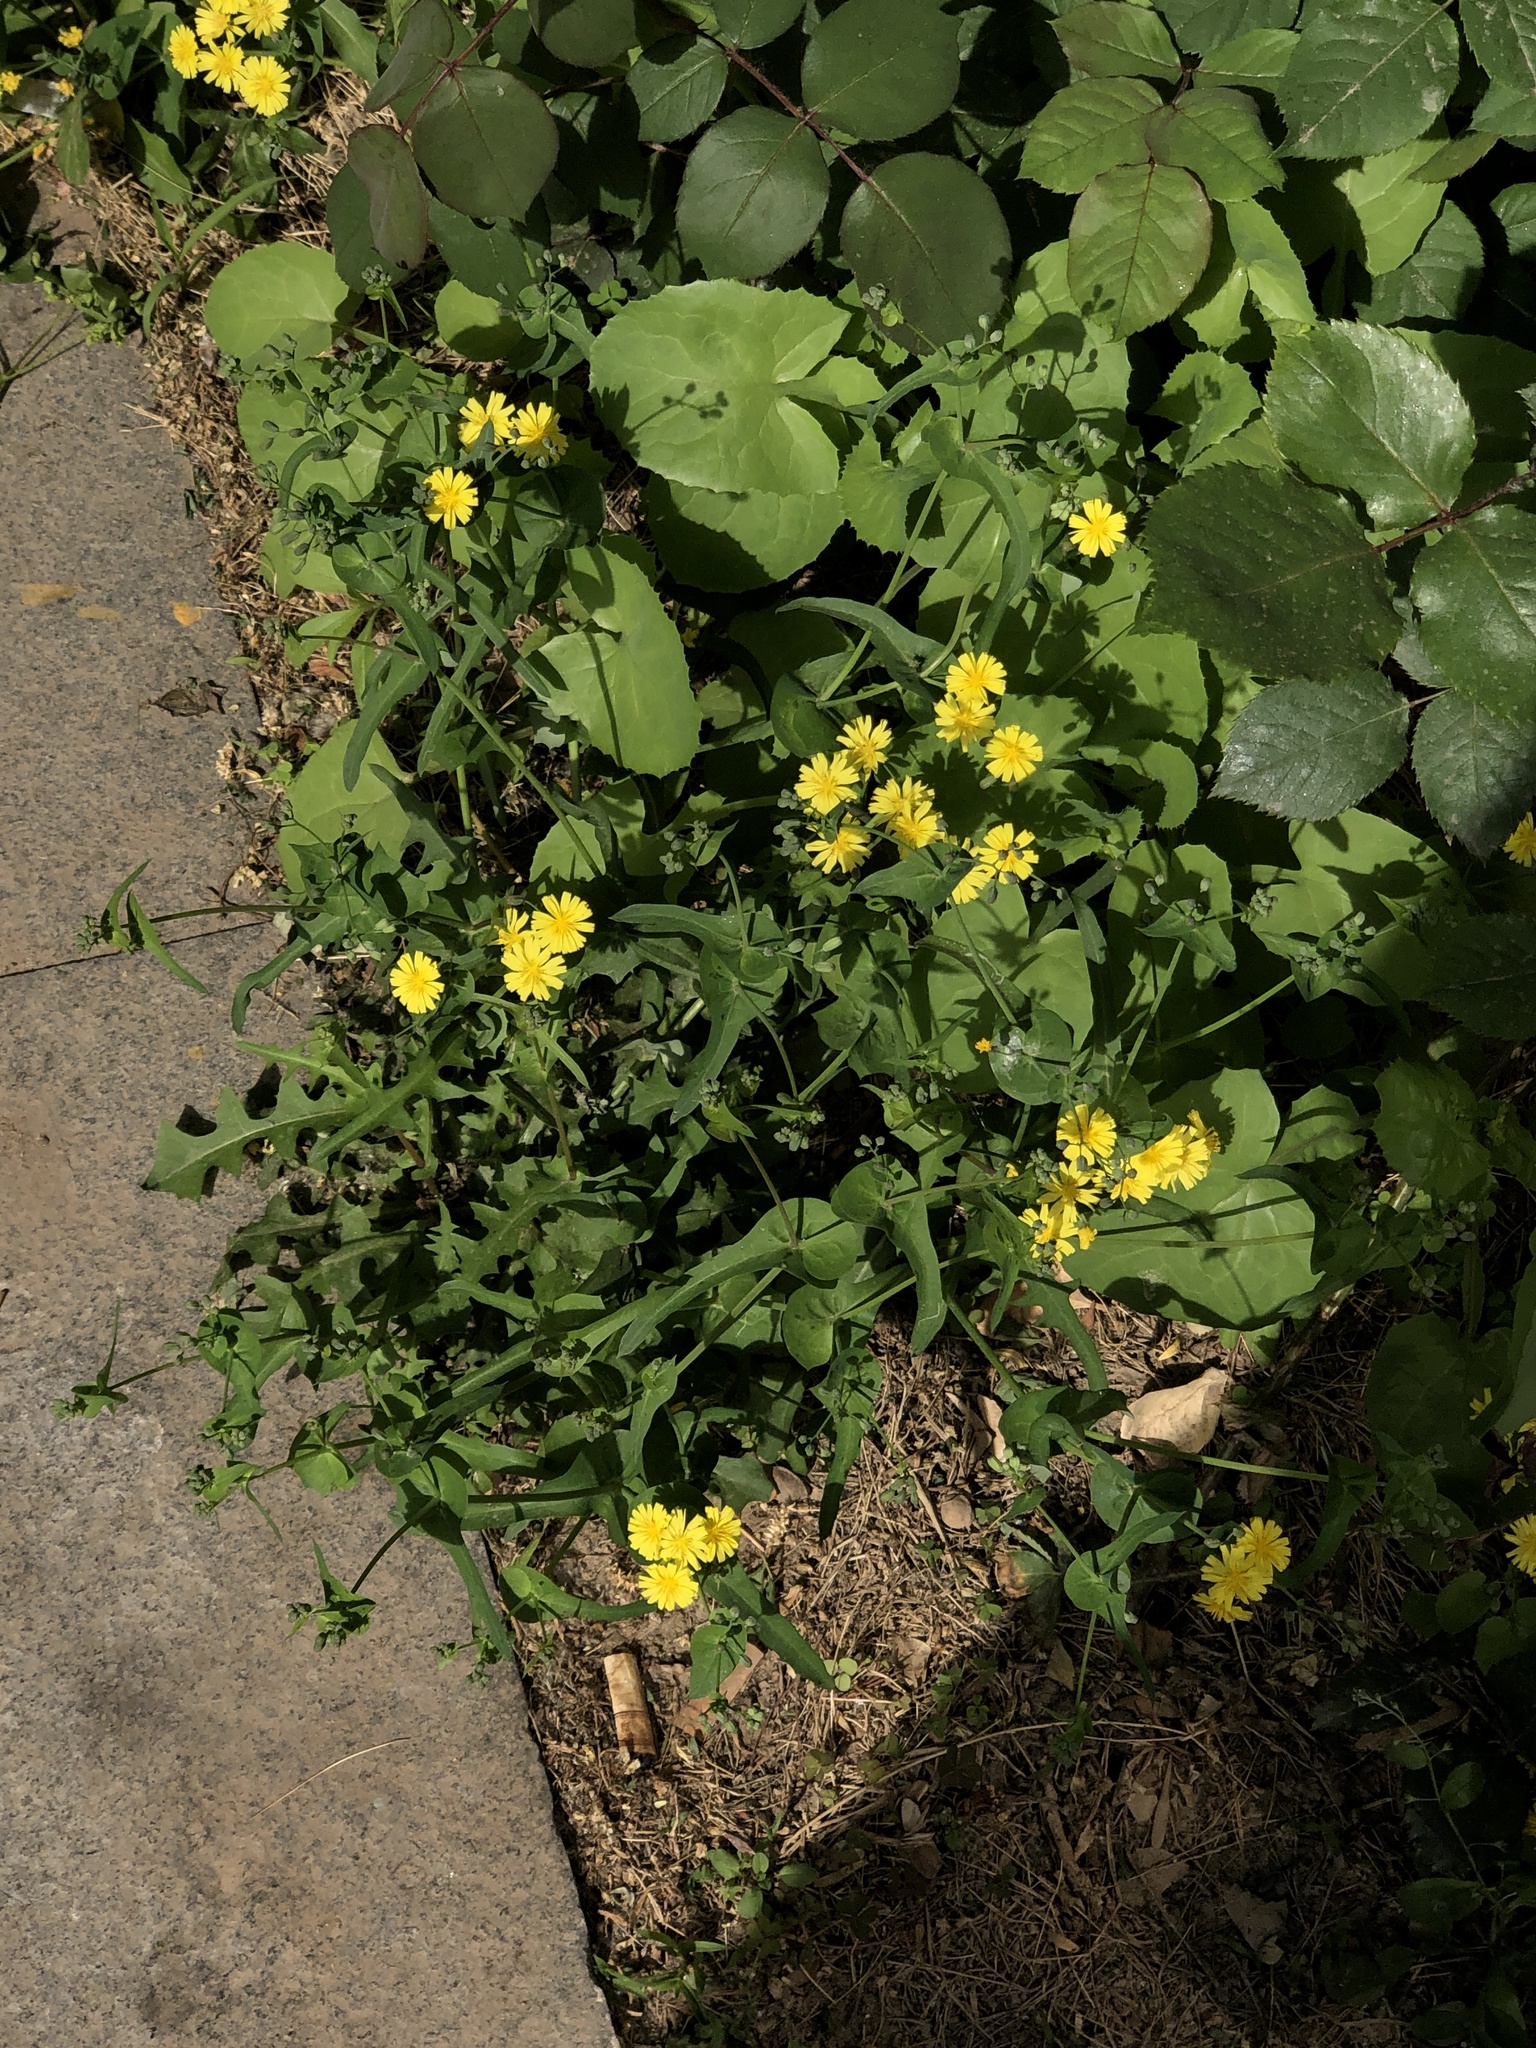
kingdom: Plantae
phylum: Tracheophyta
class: Magnoliopsida
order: Asterales
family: Asteraceae
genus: Crepidiastrum
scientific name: Crepidiastrum sonchifolium
